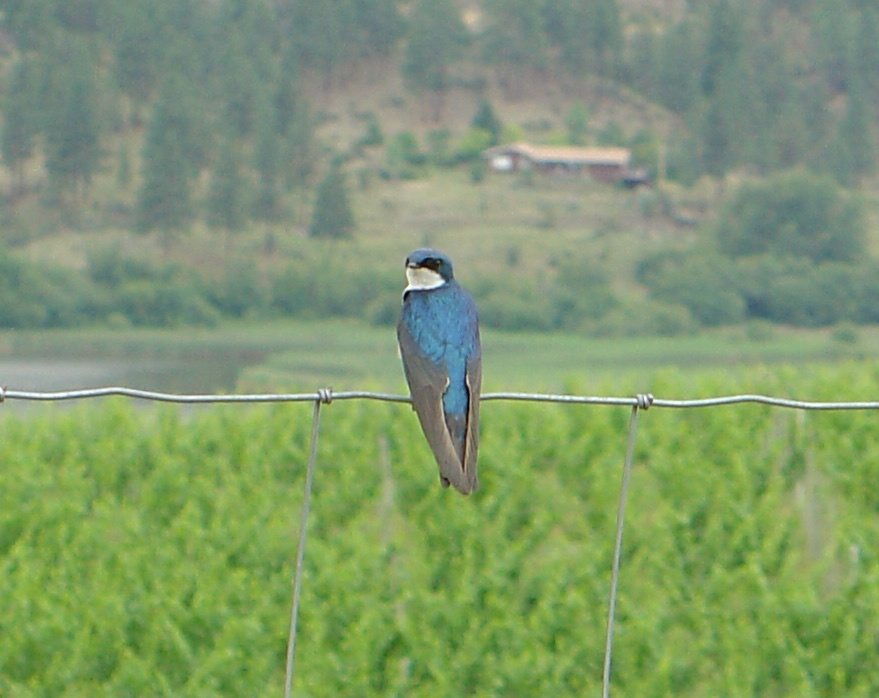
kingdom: Animalia
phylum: Chordata
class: Aves
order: Passeriformes
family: Hirundinidae
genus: Tachycineta
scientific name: Tachycineta bicolor
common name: Tree swallow
